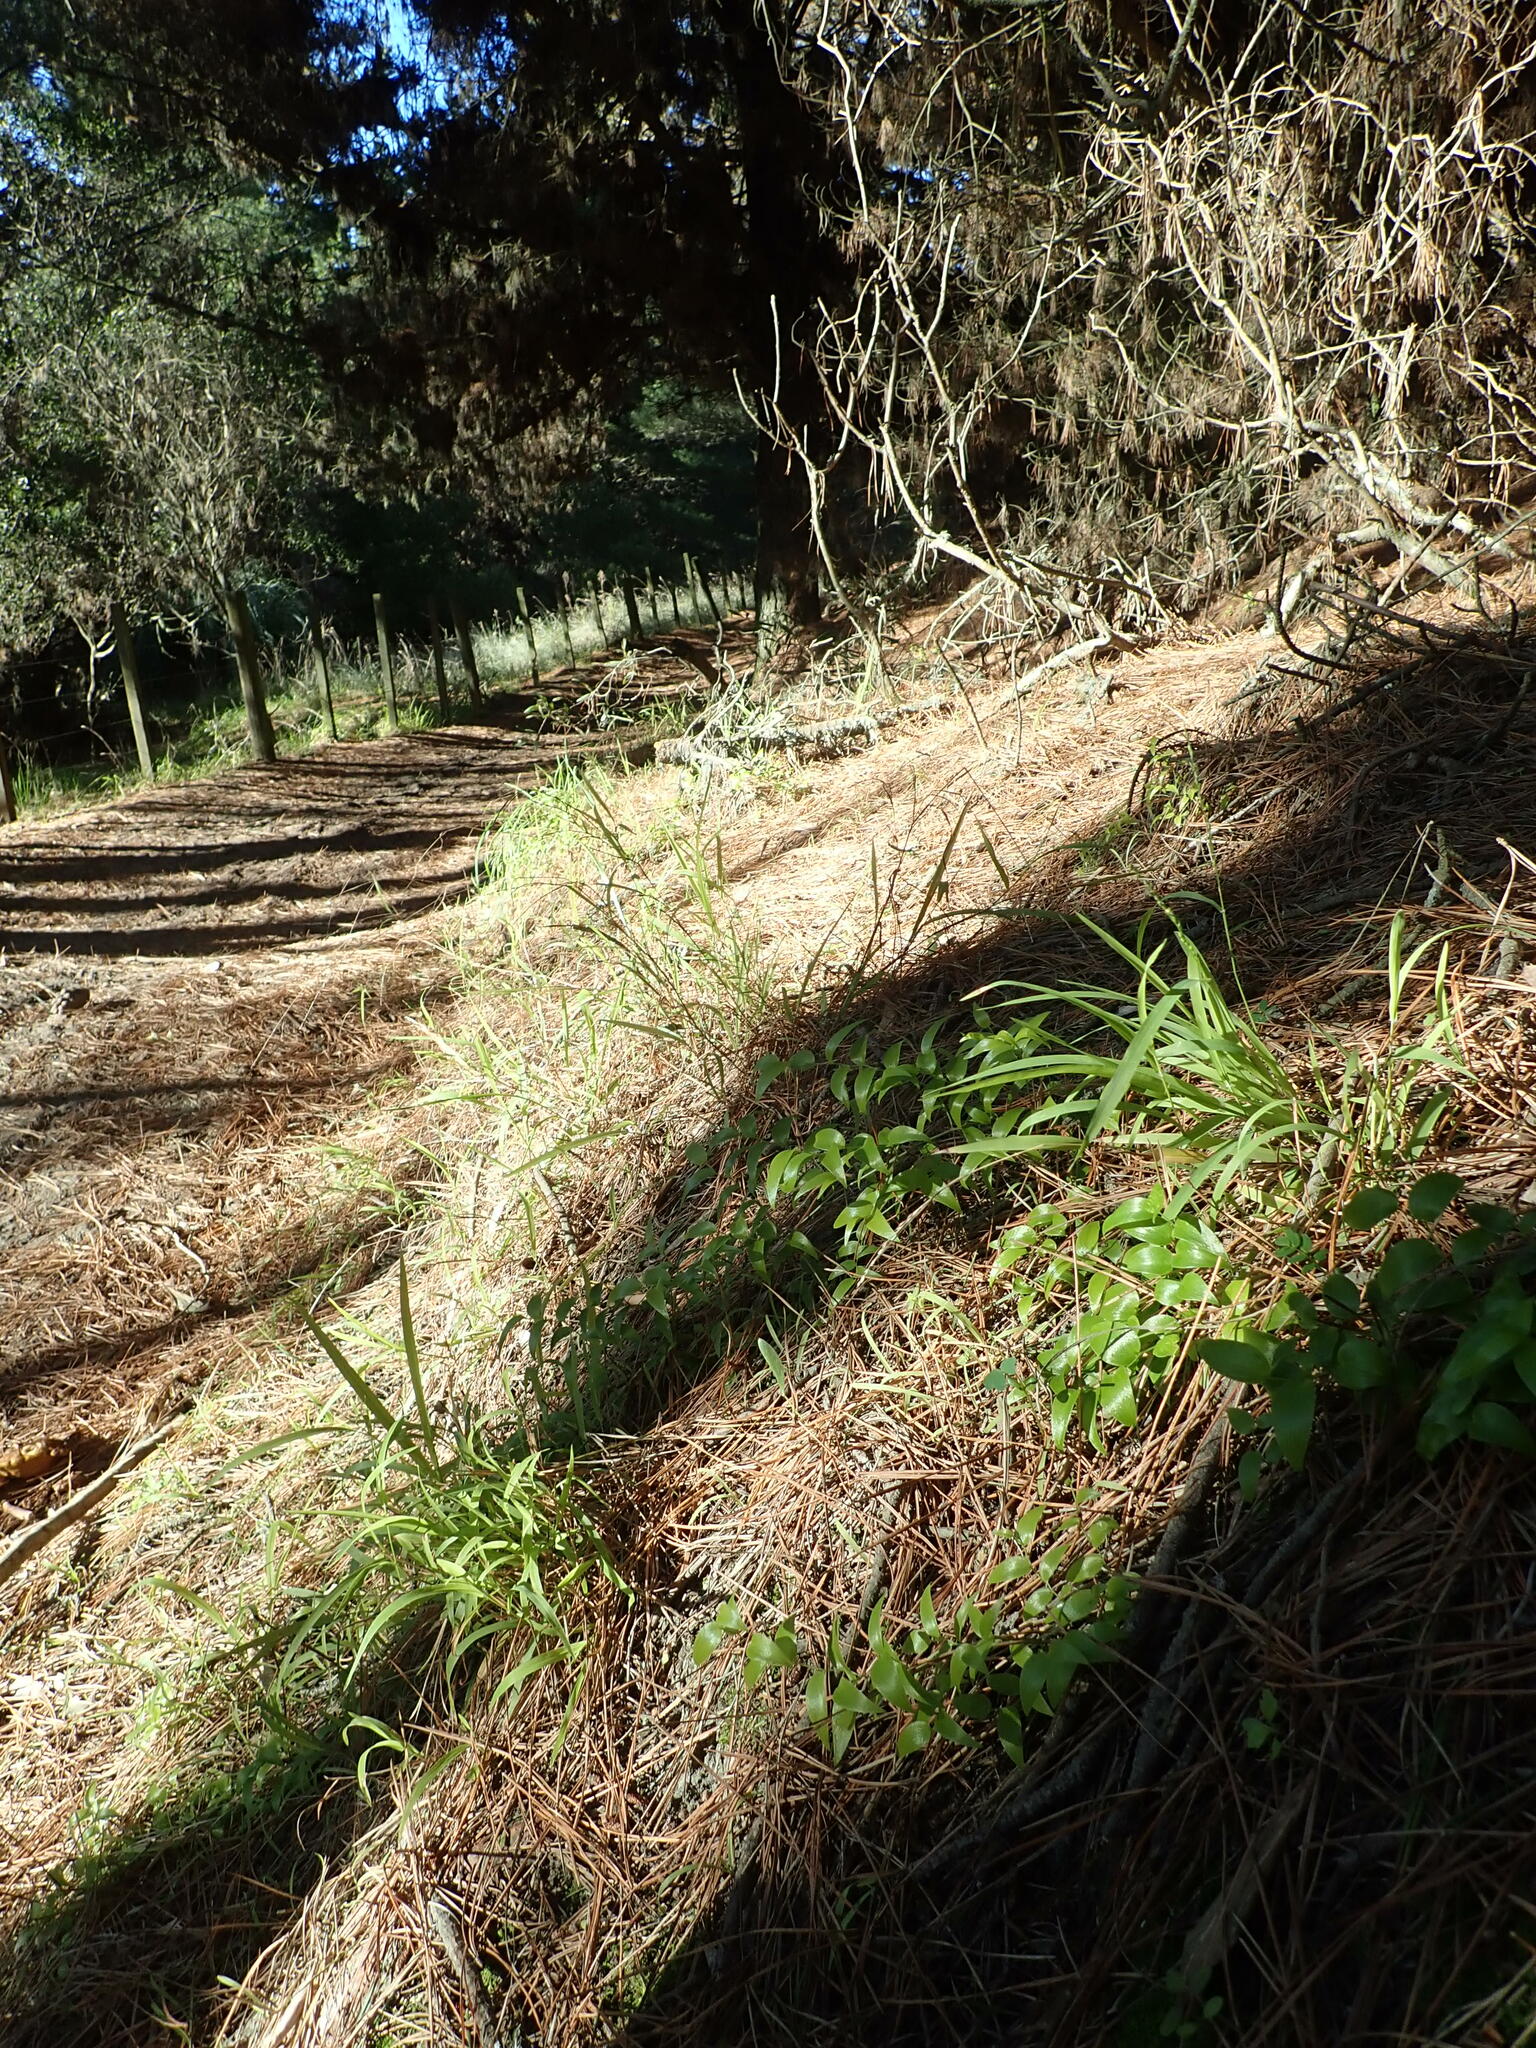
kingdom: Plantae
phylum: Tracheophyta
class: Liliopsida
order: Asparagales
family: Asparagaceae
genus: Asparagus
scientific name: Asparagus asparagoides
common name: African asparagus fern
